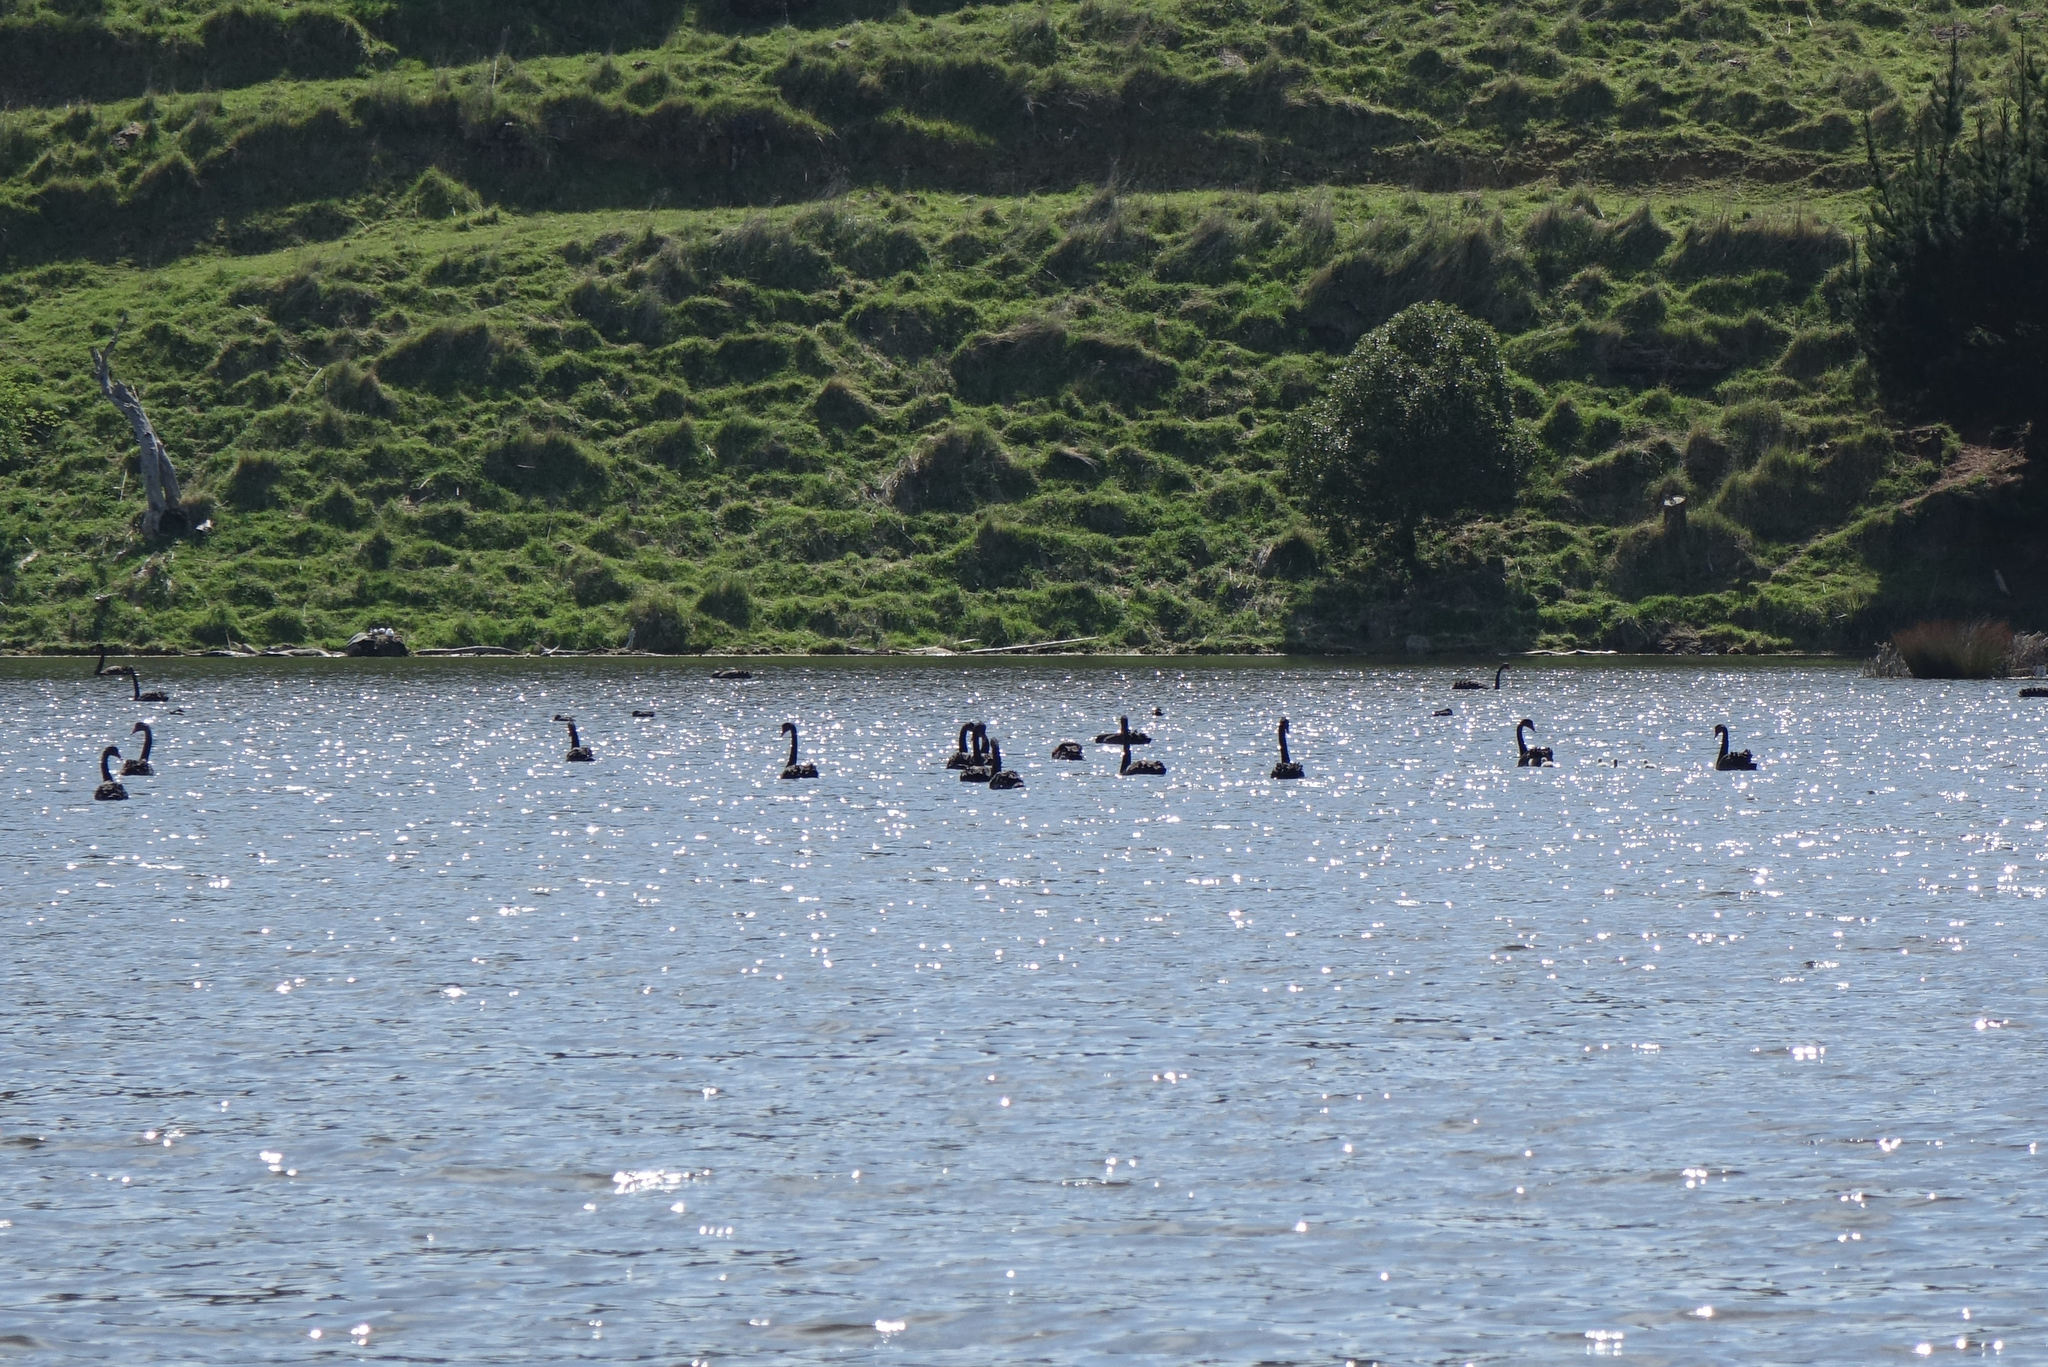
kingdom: Animalia
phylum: Chordata
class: Aves
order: Anseriformes
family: Anatidae
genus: Cygnus
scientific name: Cygnus atratus
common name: Black swan
